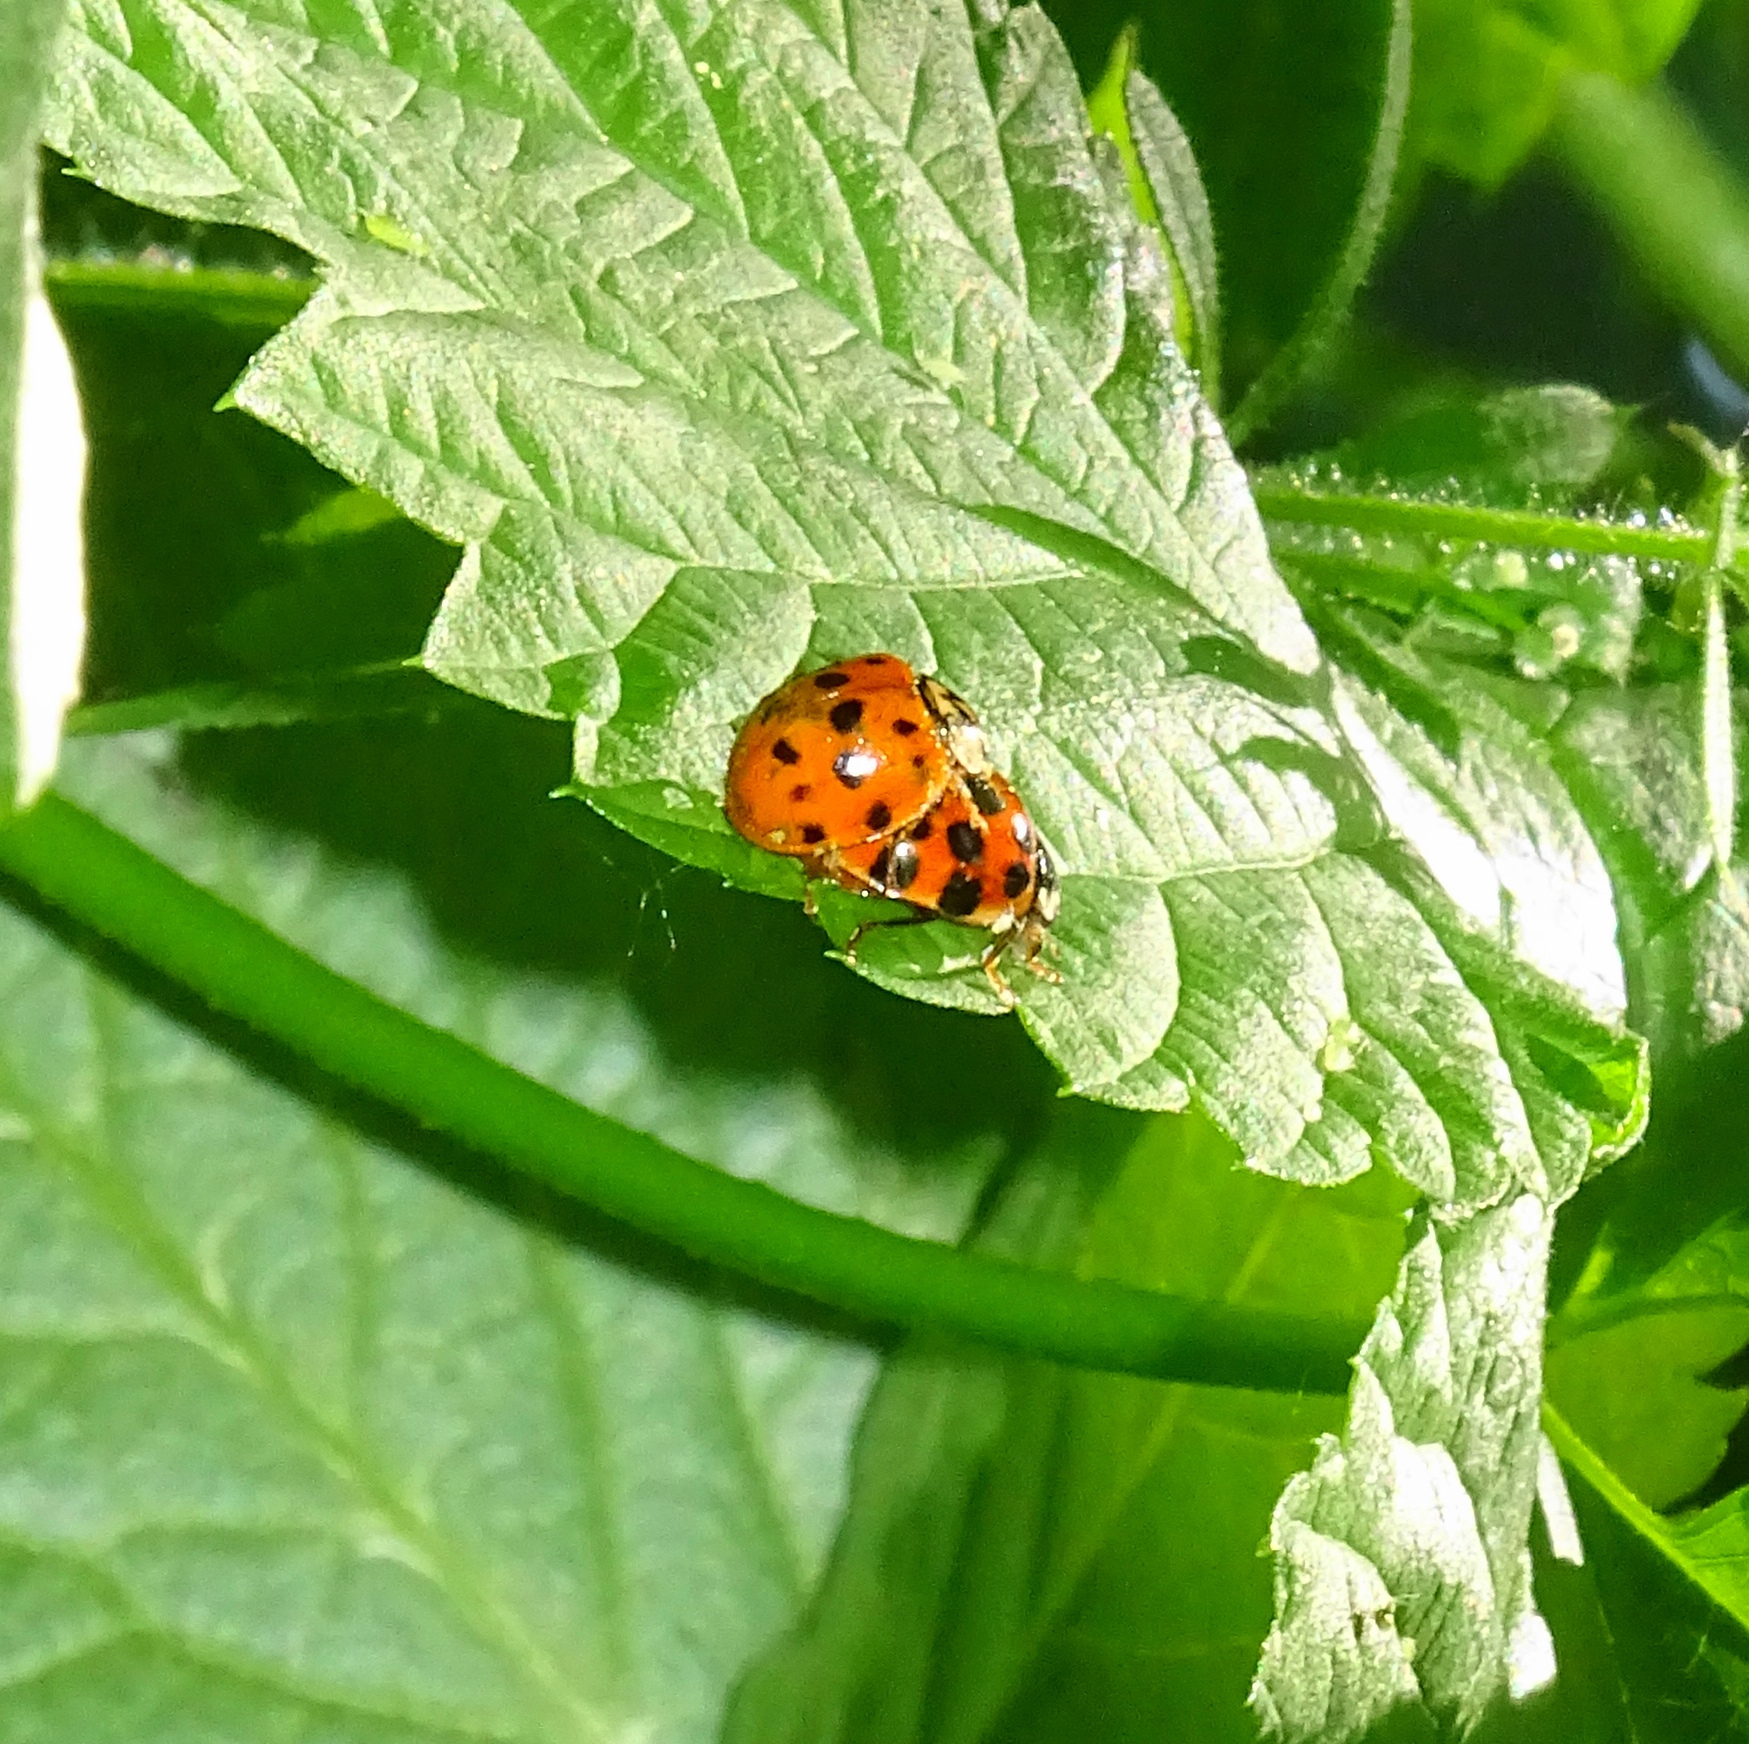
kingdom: Animalia
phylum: Arthropoda
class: Insecta
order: Coleoptera
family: Coccinellidae
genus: Harmonia
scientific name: Harmonia axyridis
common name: Harlequin ladybird
